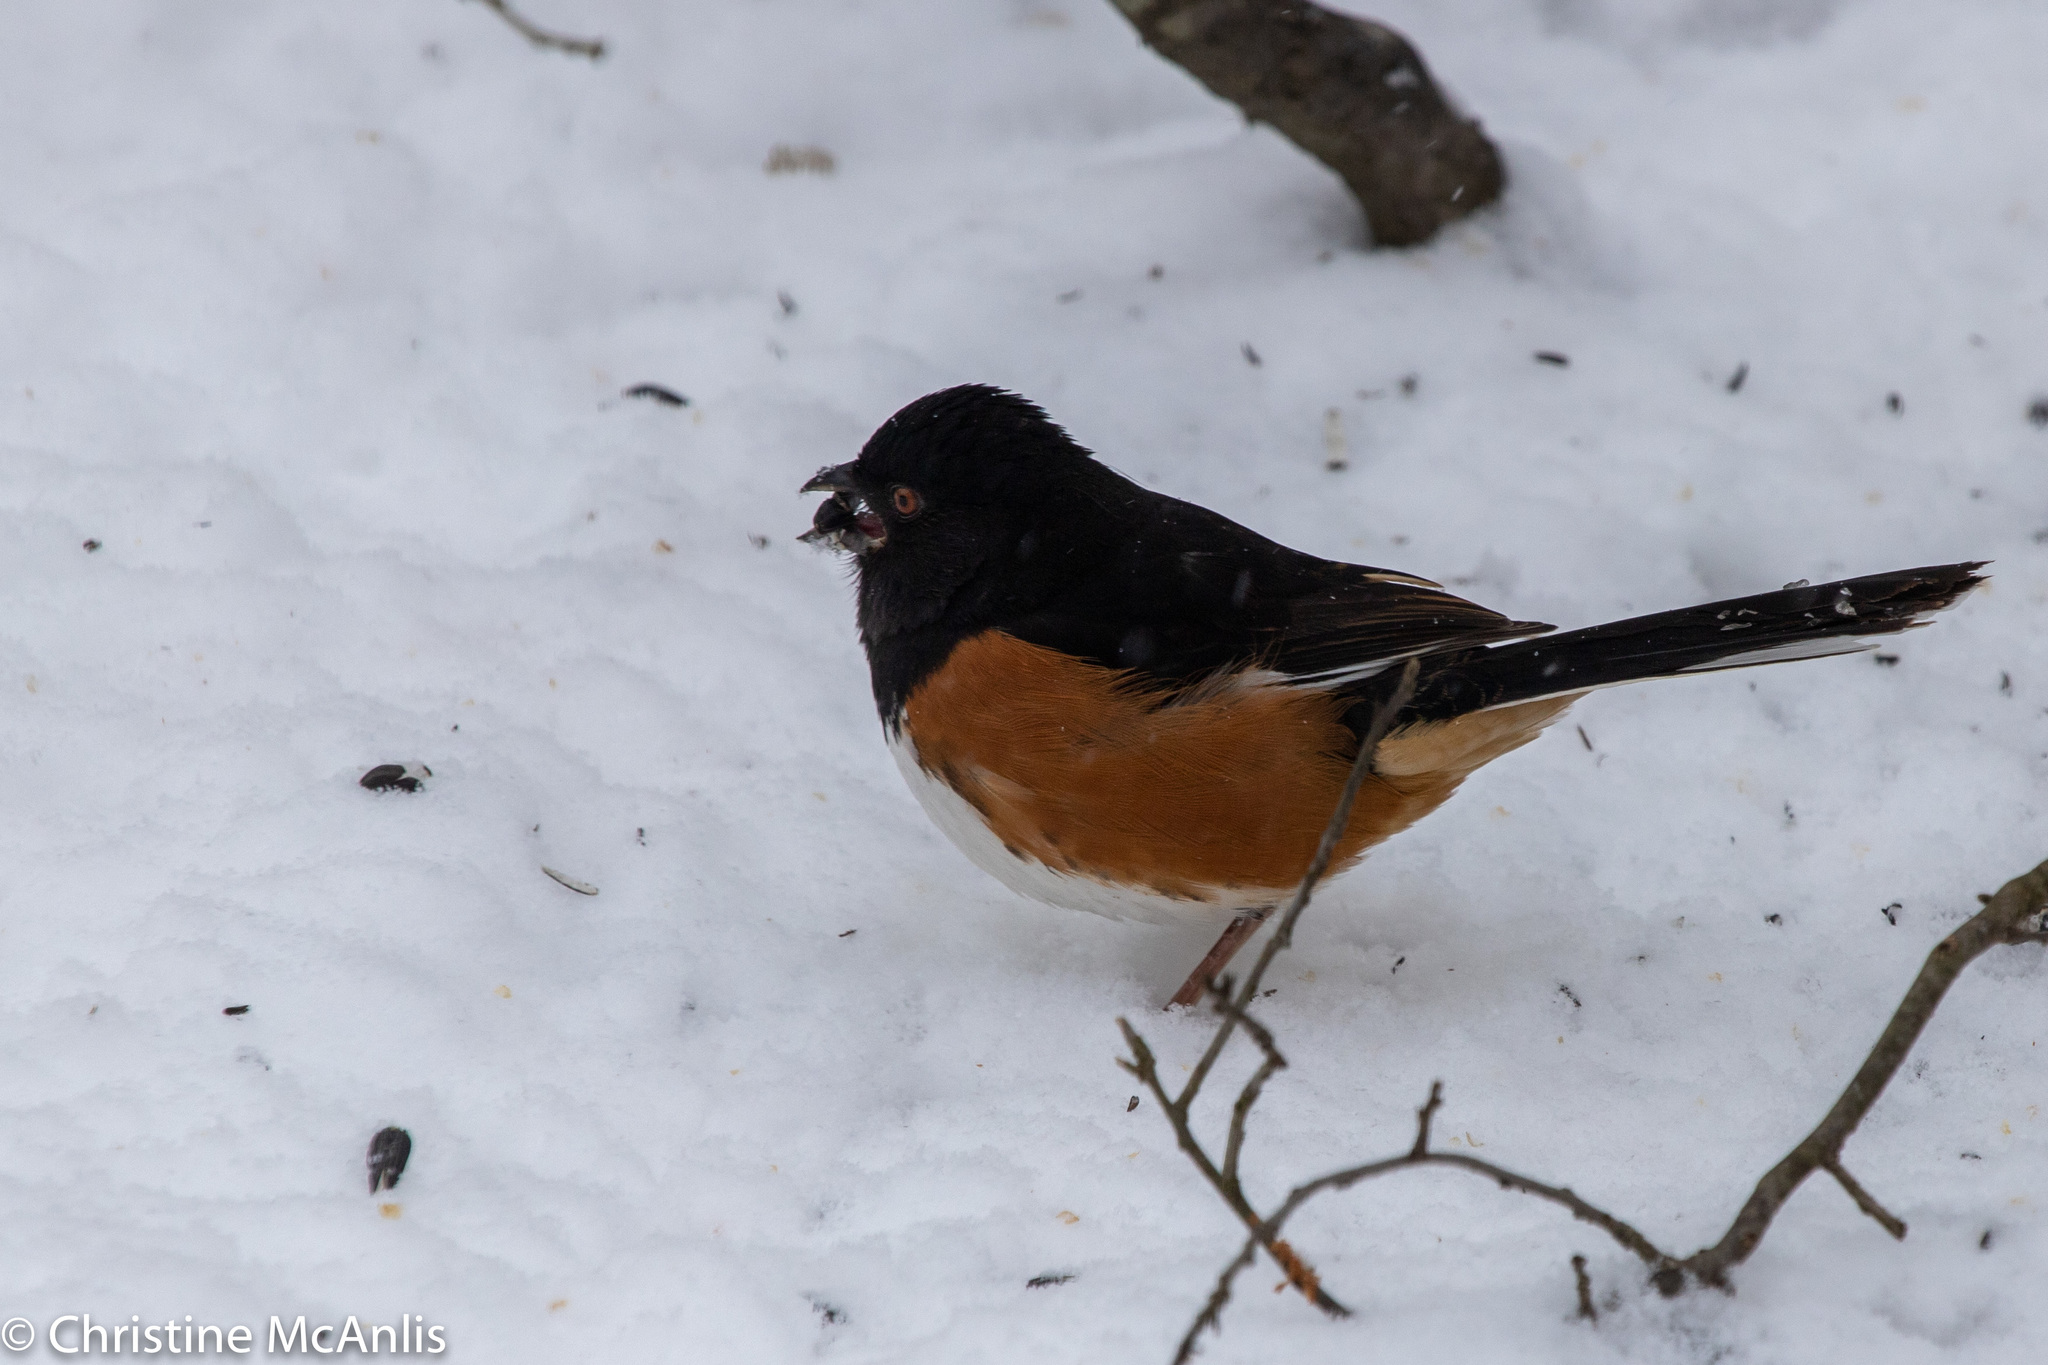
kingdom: Animalia
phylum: Chordata
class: Aves
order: Passeriformes
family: Passerellidae
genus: Pipilo
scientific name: Pipilo erythrophthalmus
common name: Eastern towhee
